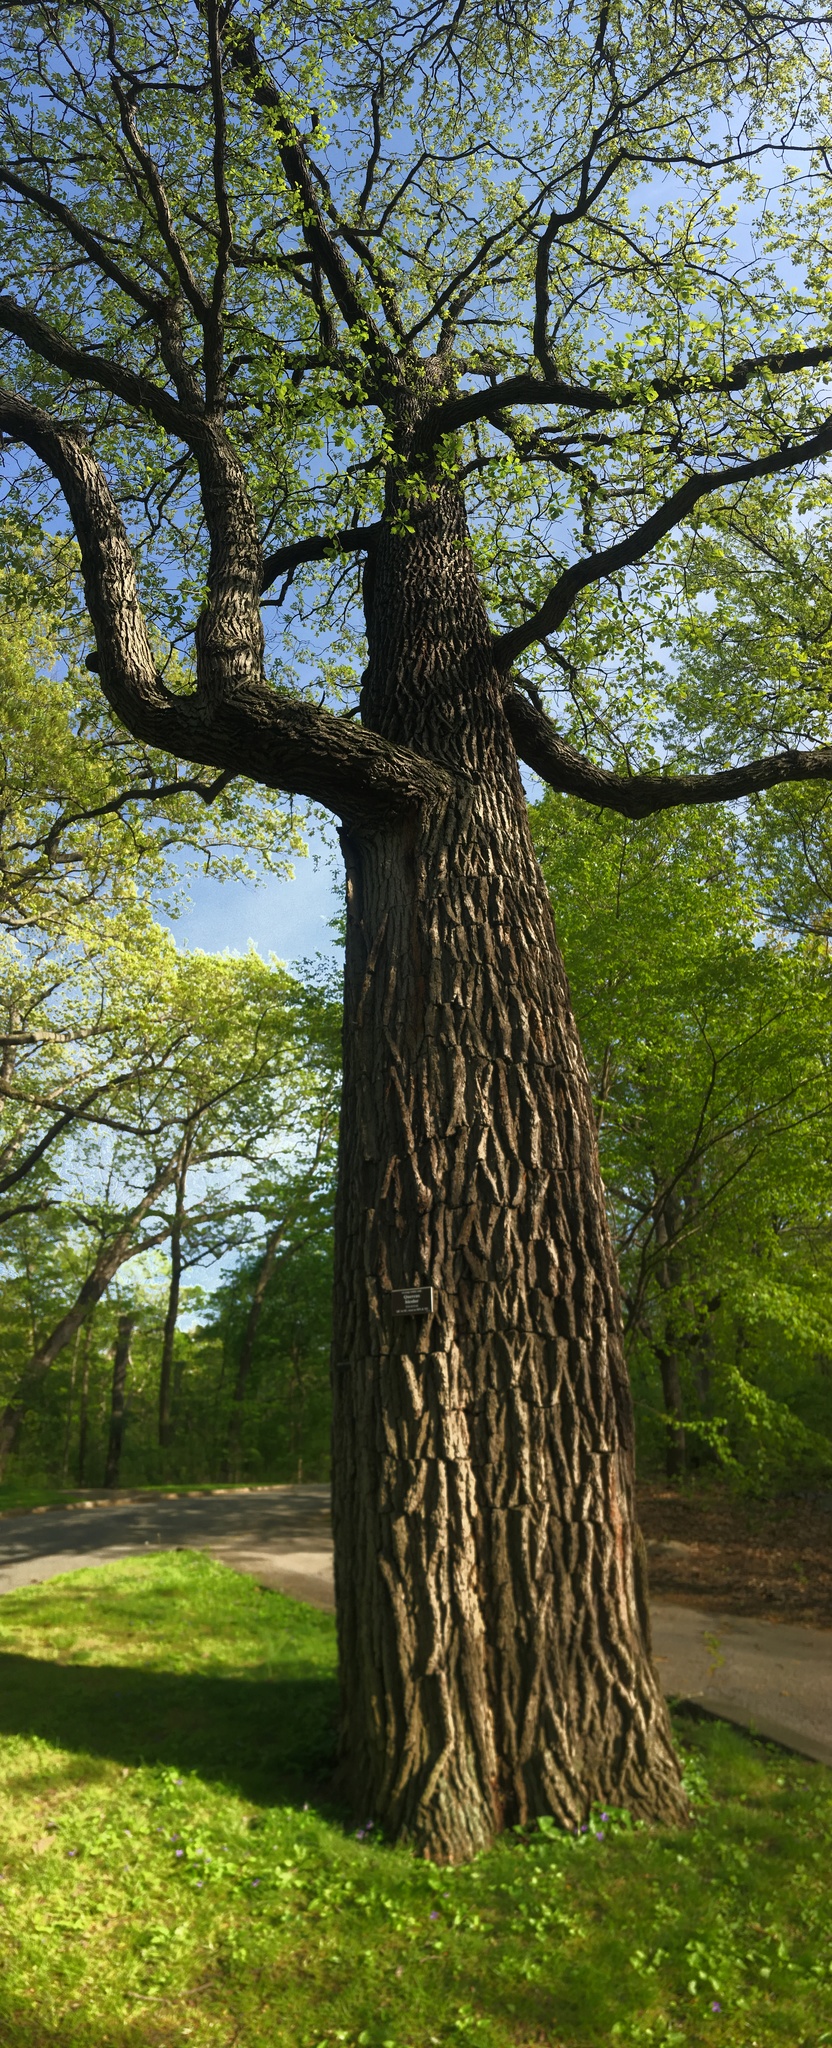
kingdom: Plantae
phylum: Tracheophyta
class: Magnoliopsida
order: Fagales
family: Fagaceae
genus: Quercus
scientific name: Quercus bicolor
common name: Swamp white oak
